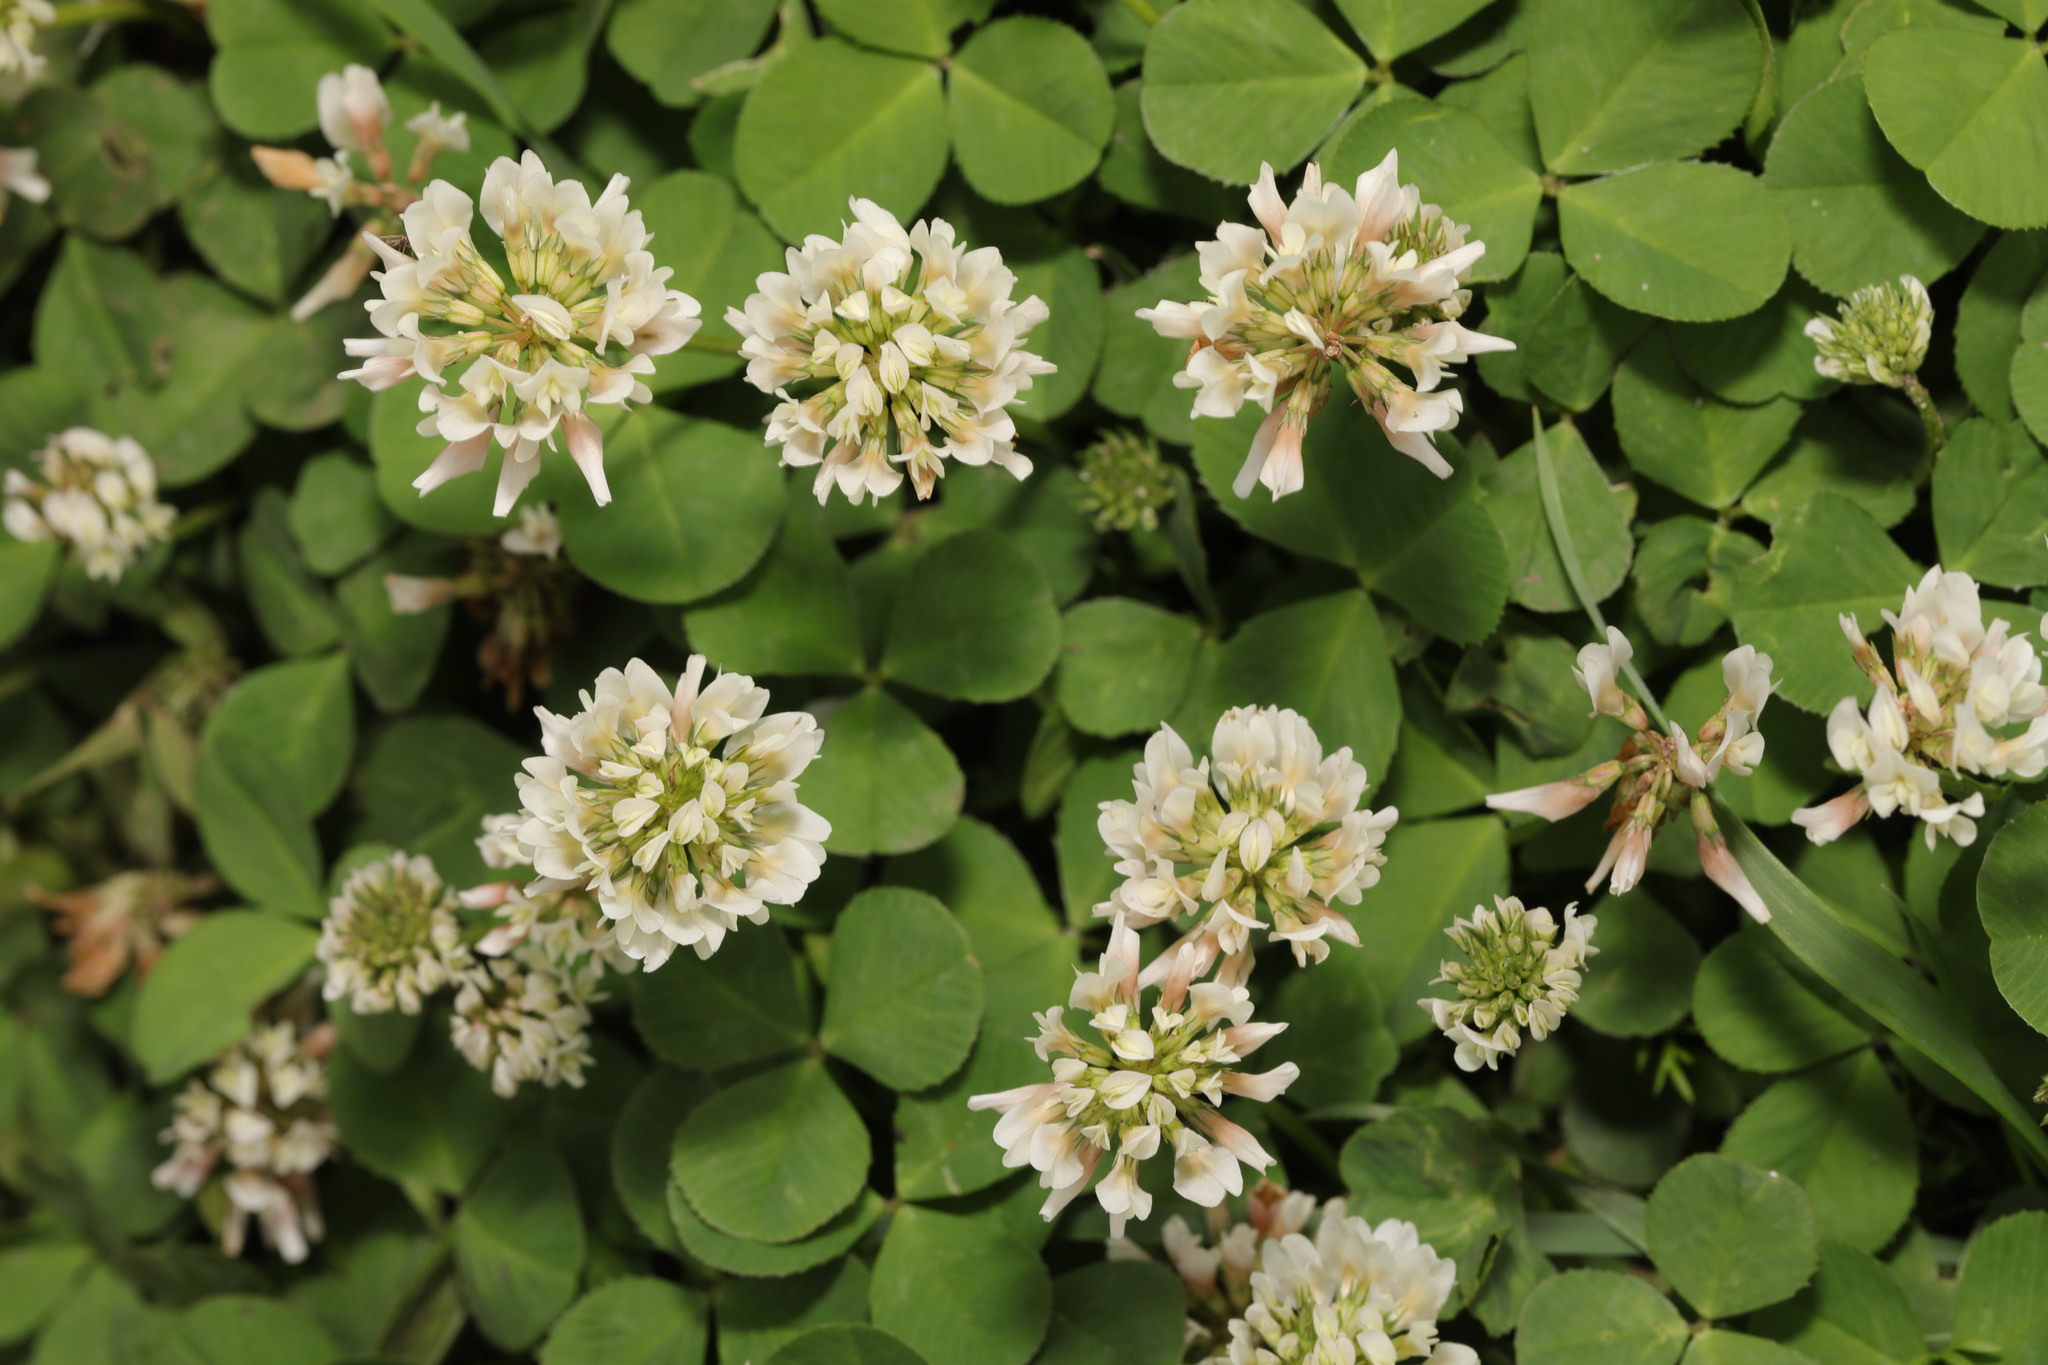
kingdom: Plantae
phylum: Tracheophyta
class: Magnoliopsida
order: Fabales
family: Fabaceae
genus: Trifolium
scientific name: Trifolium repens
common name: White clover
